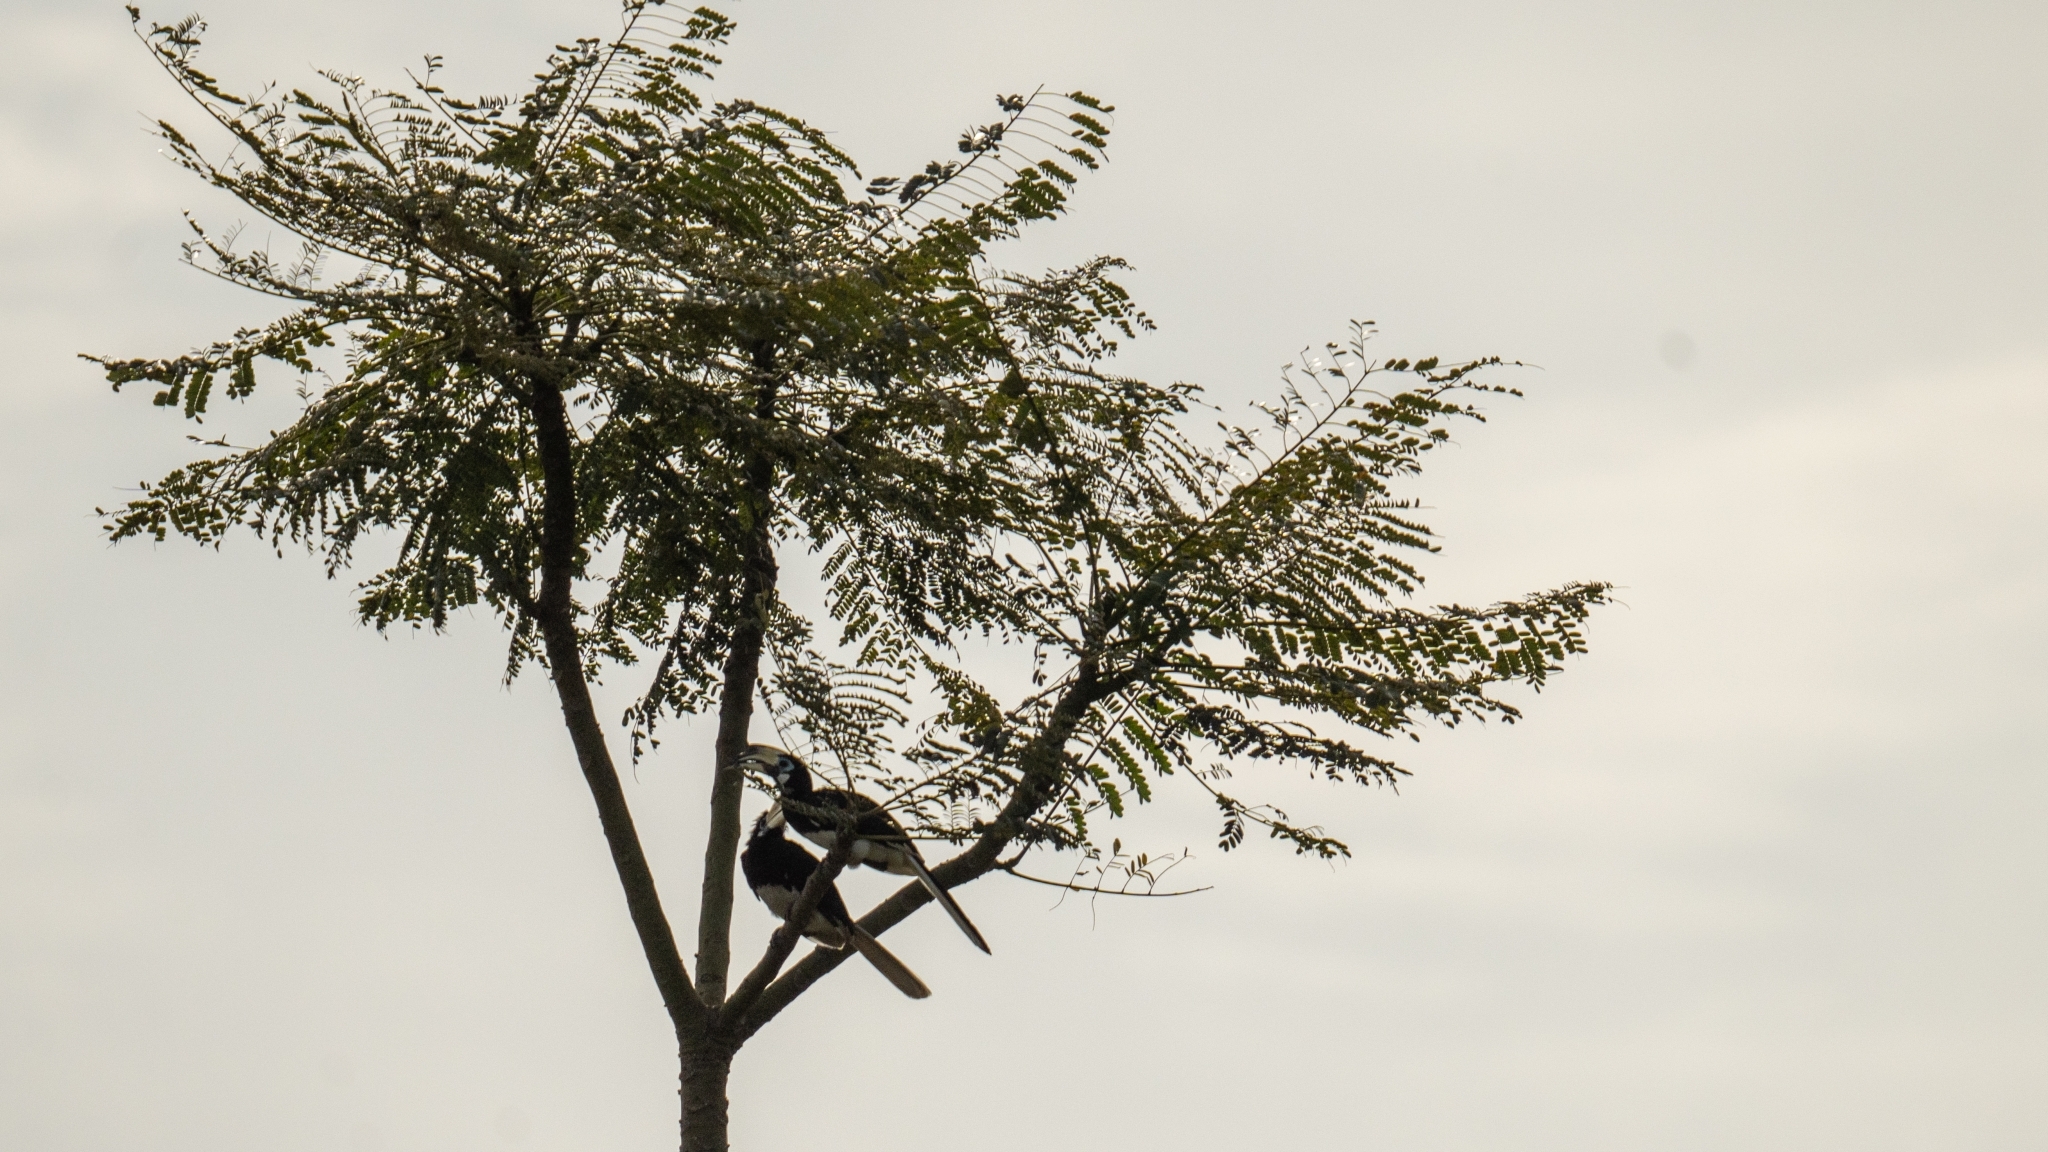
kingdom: Animalia
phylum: Chordata
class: Aves
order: Bucerotiformes
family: Bucerotidae
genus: Anthracoceros
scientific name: Anthracoceros albirostris
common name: Oriental pied-hornbill
